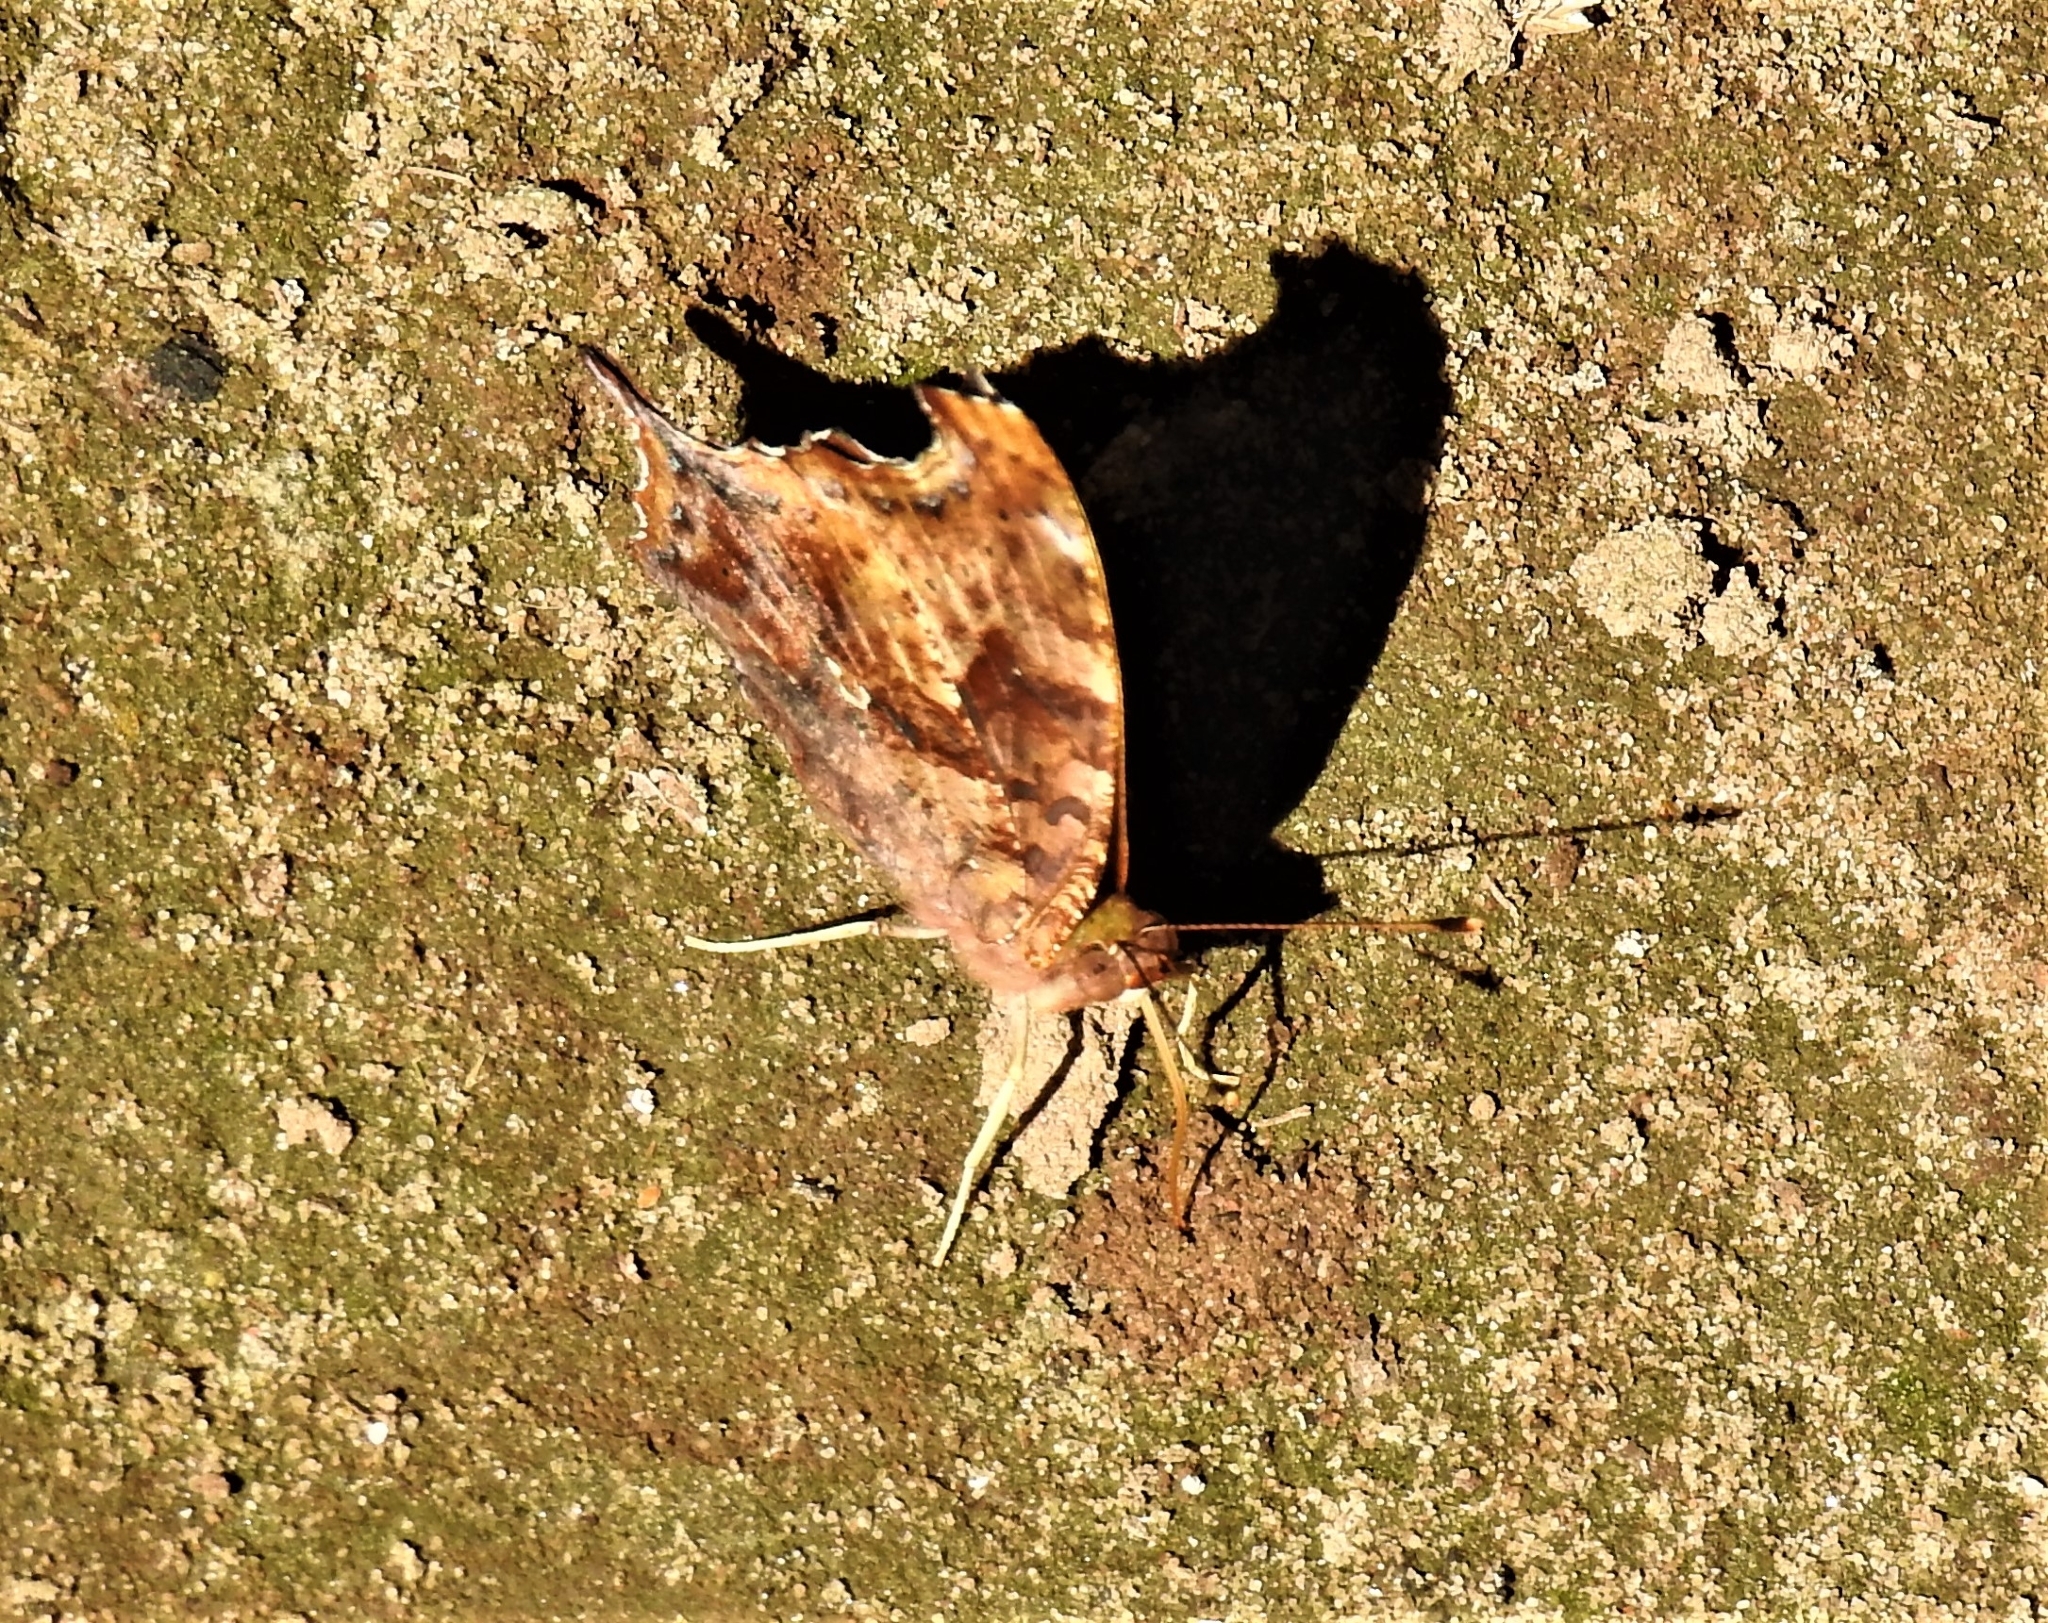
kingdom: Animalia
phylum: Arthropoda
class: Insecta
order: Lepidoptera
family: Nymphalidae
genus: Polygonia
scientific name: Polygonia interrogationis
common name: Question mark
